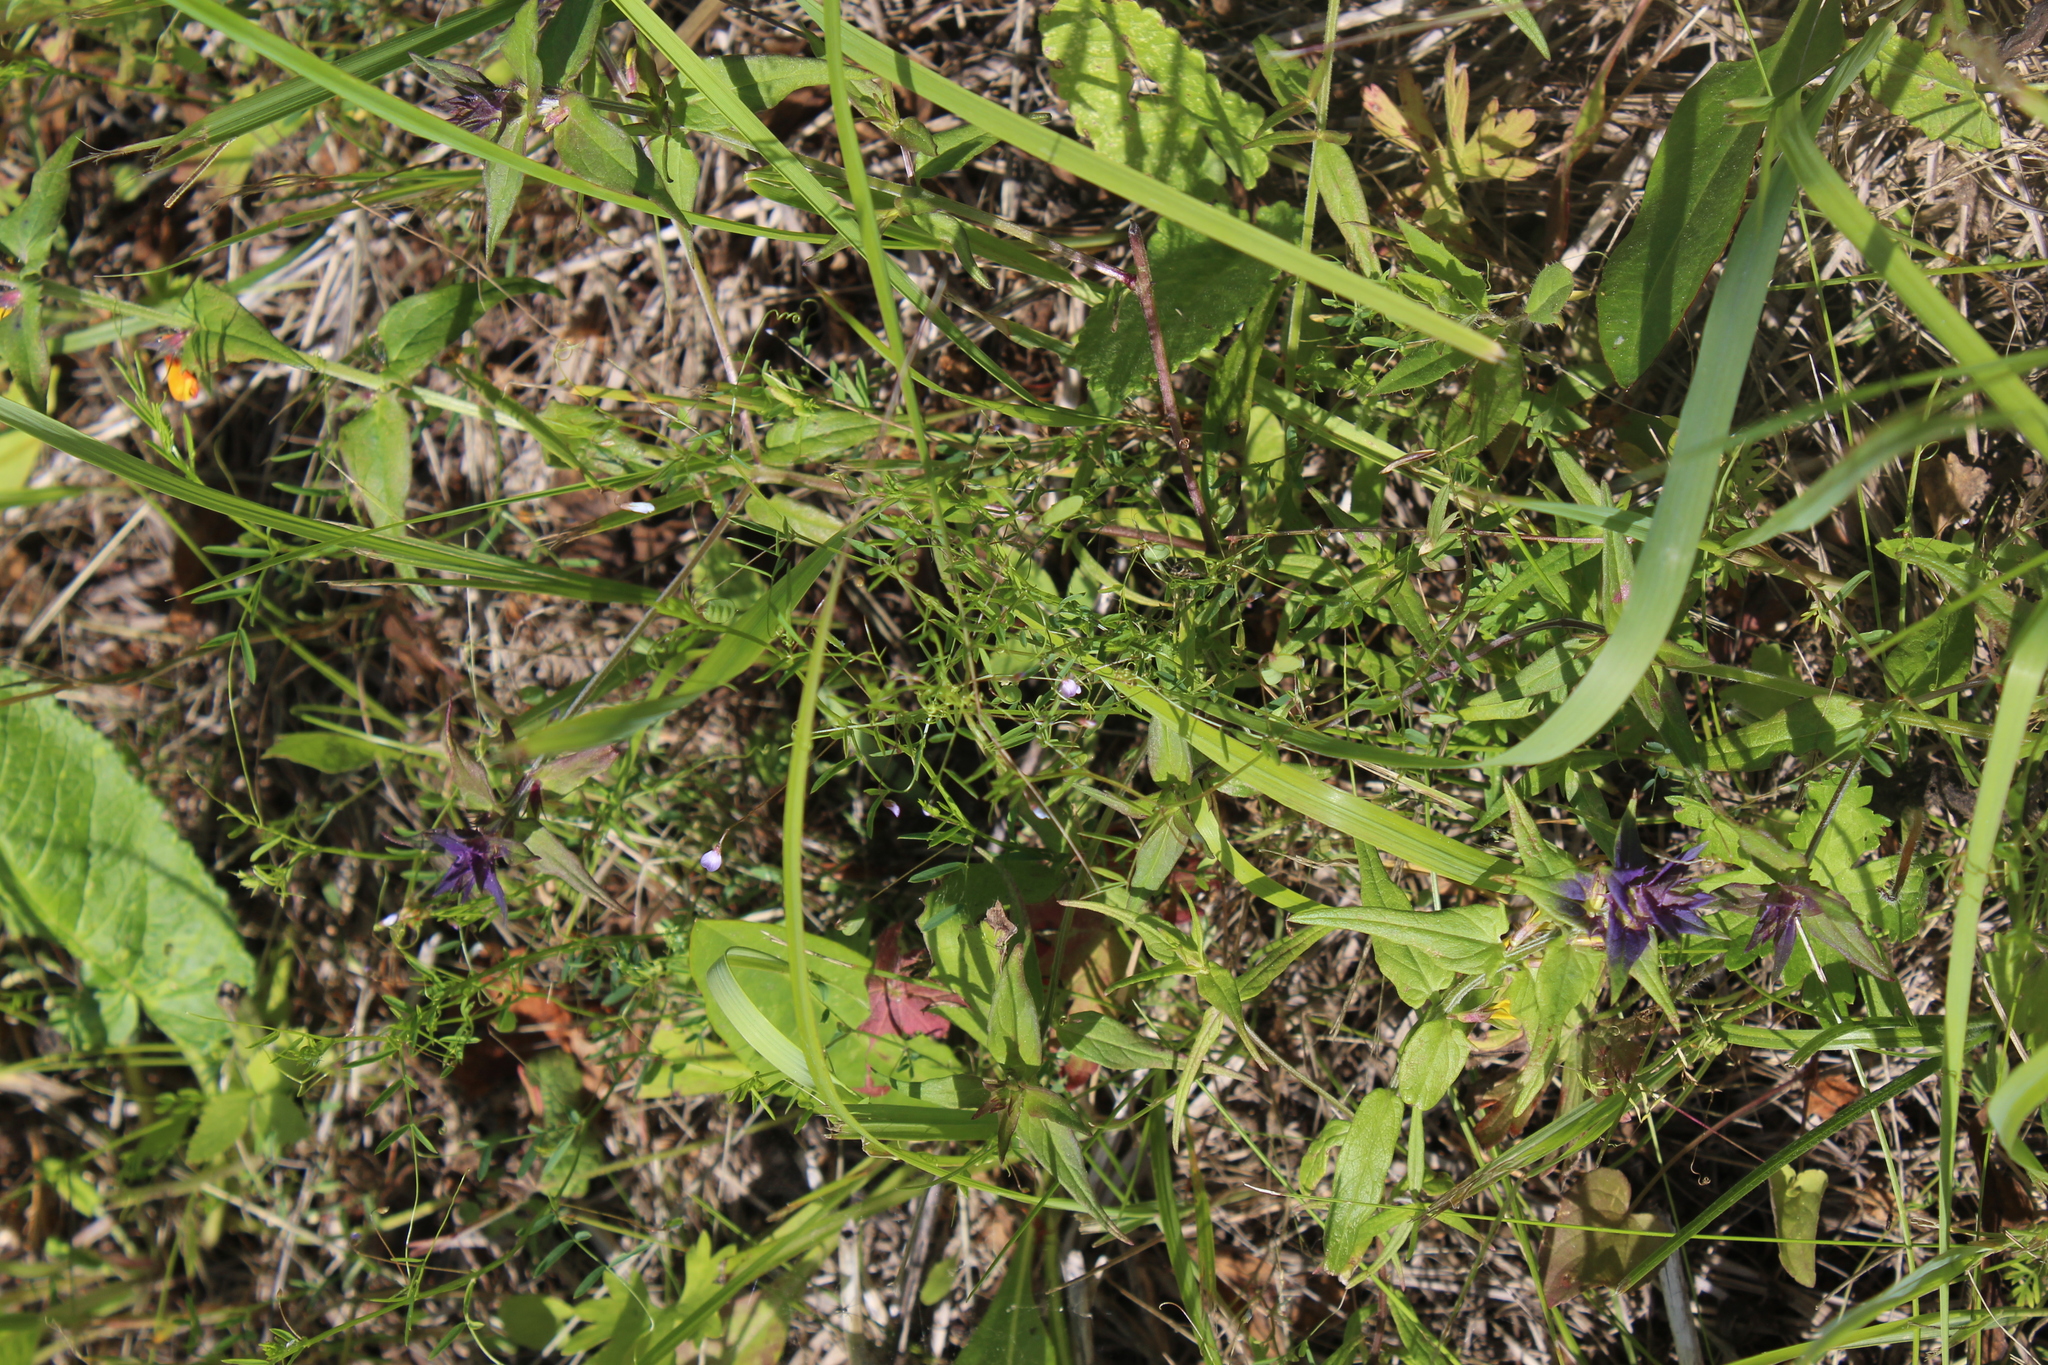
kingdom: Plantae
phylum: Tracheophyta
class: Magnoliopsida
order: Fabales
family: Fabaceae
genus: Vicia
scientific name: Vicia tetrasperma
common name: Smooth tare
